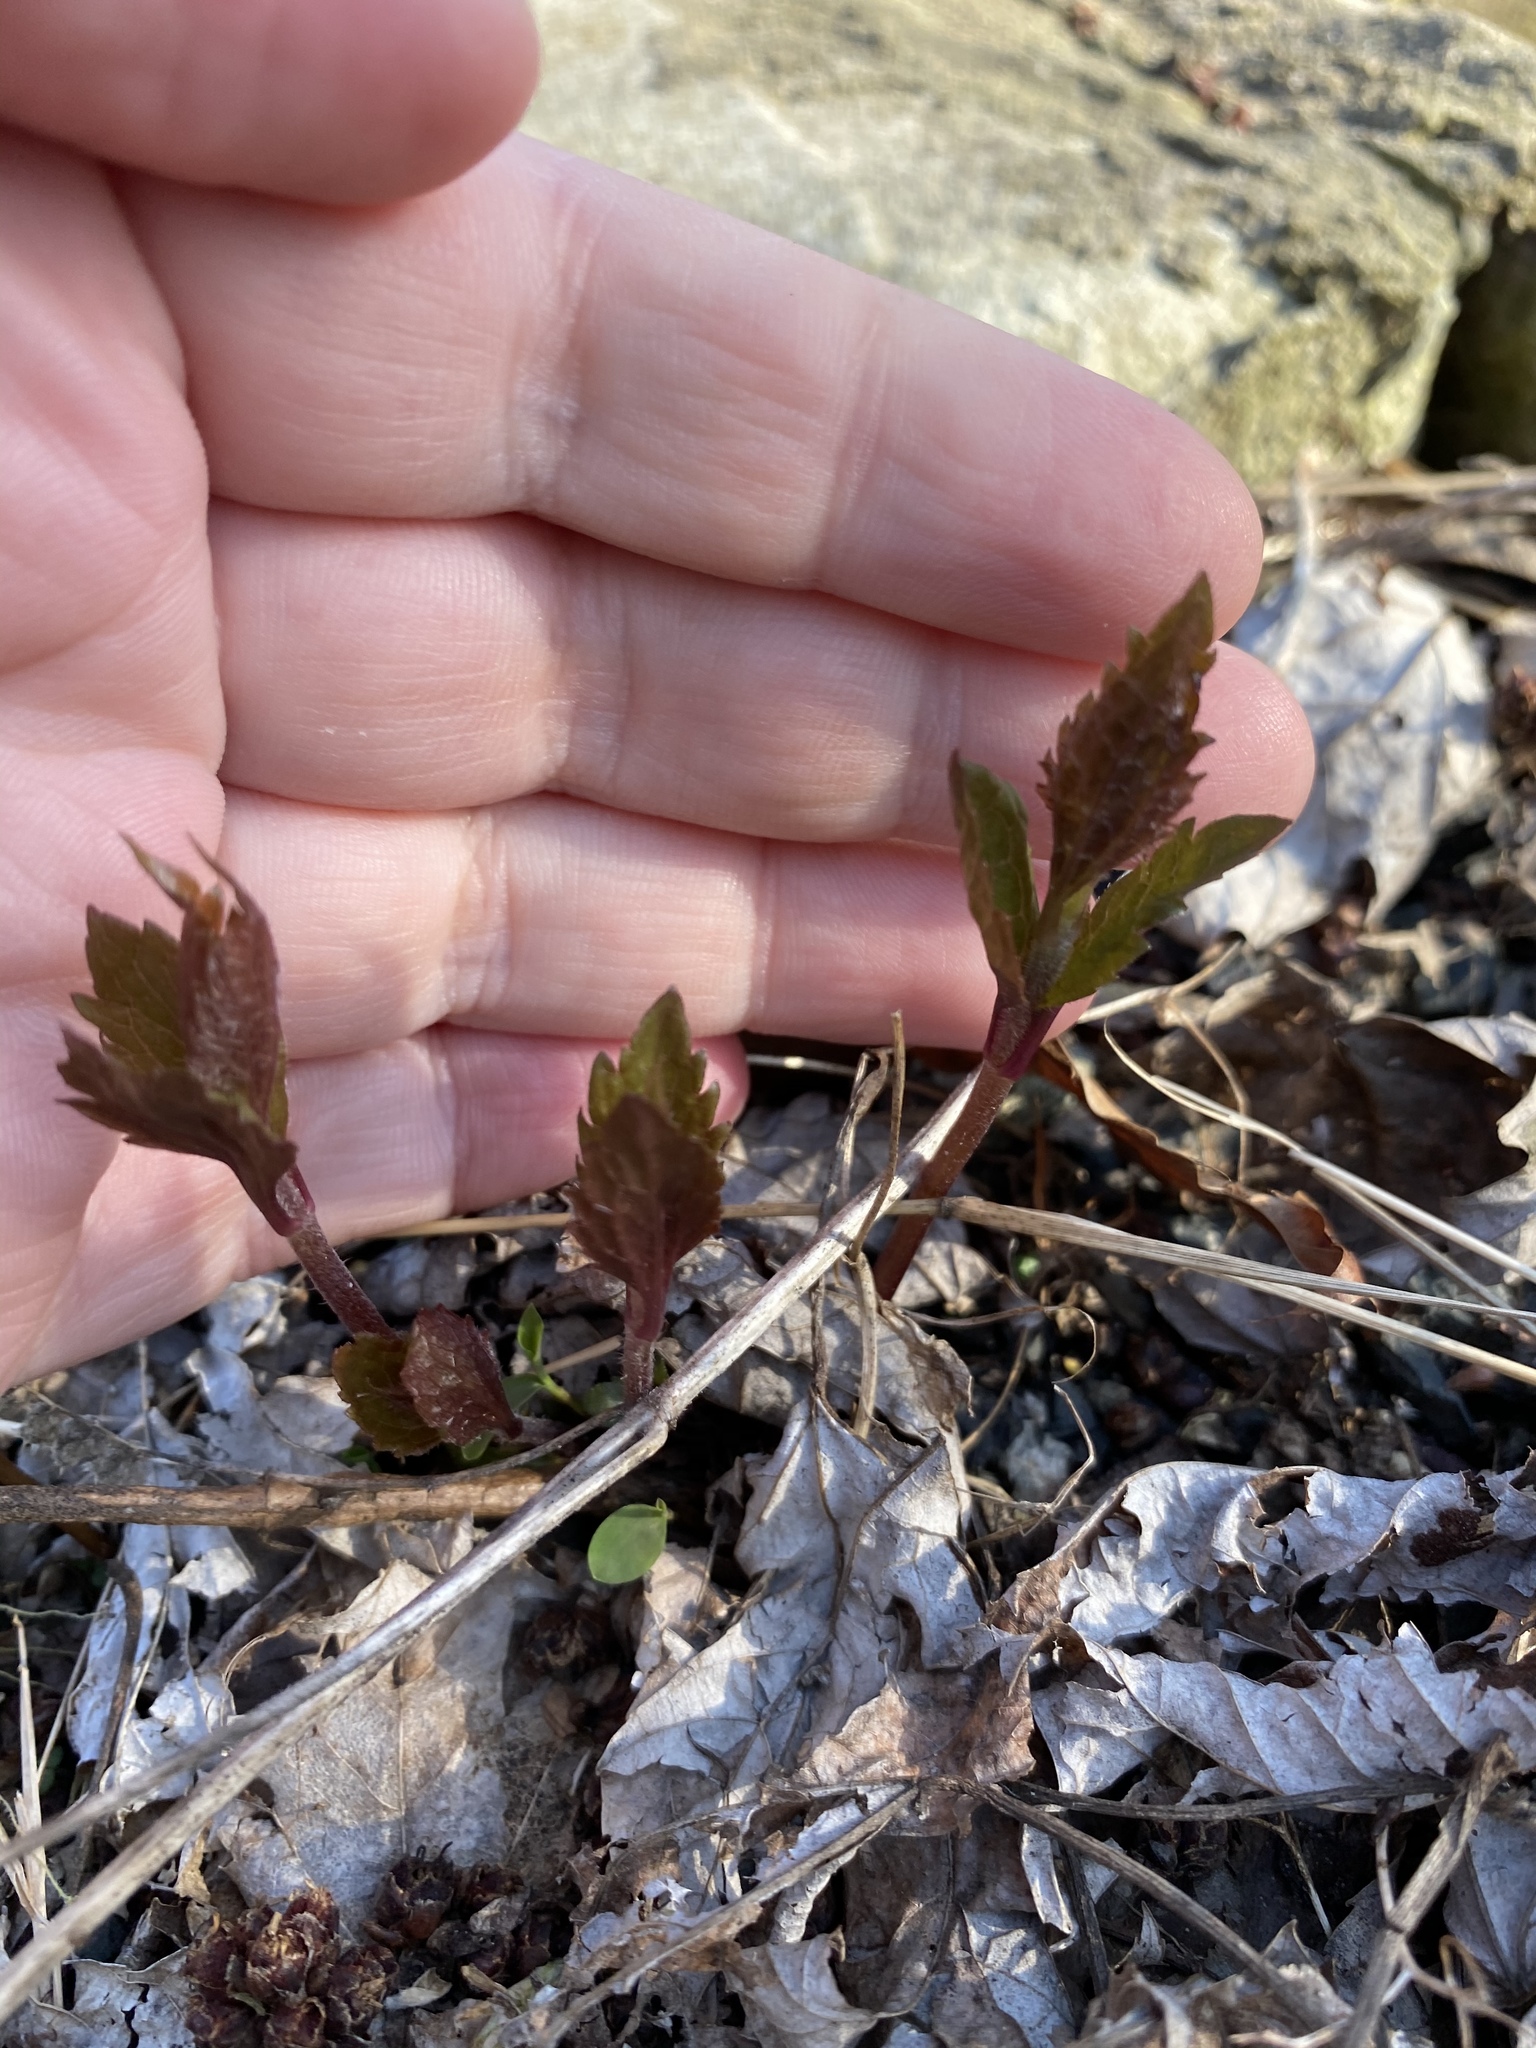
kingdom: Plantae
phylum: Tracheophyta
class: Magnoliopsida
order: Lamiales
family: Lamiaceae
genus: Elsholtzia
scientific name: Elsholtzia ciliata
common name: Ciliate elsholtzia
